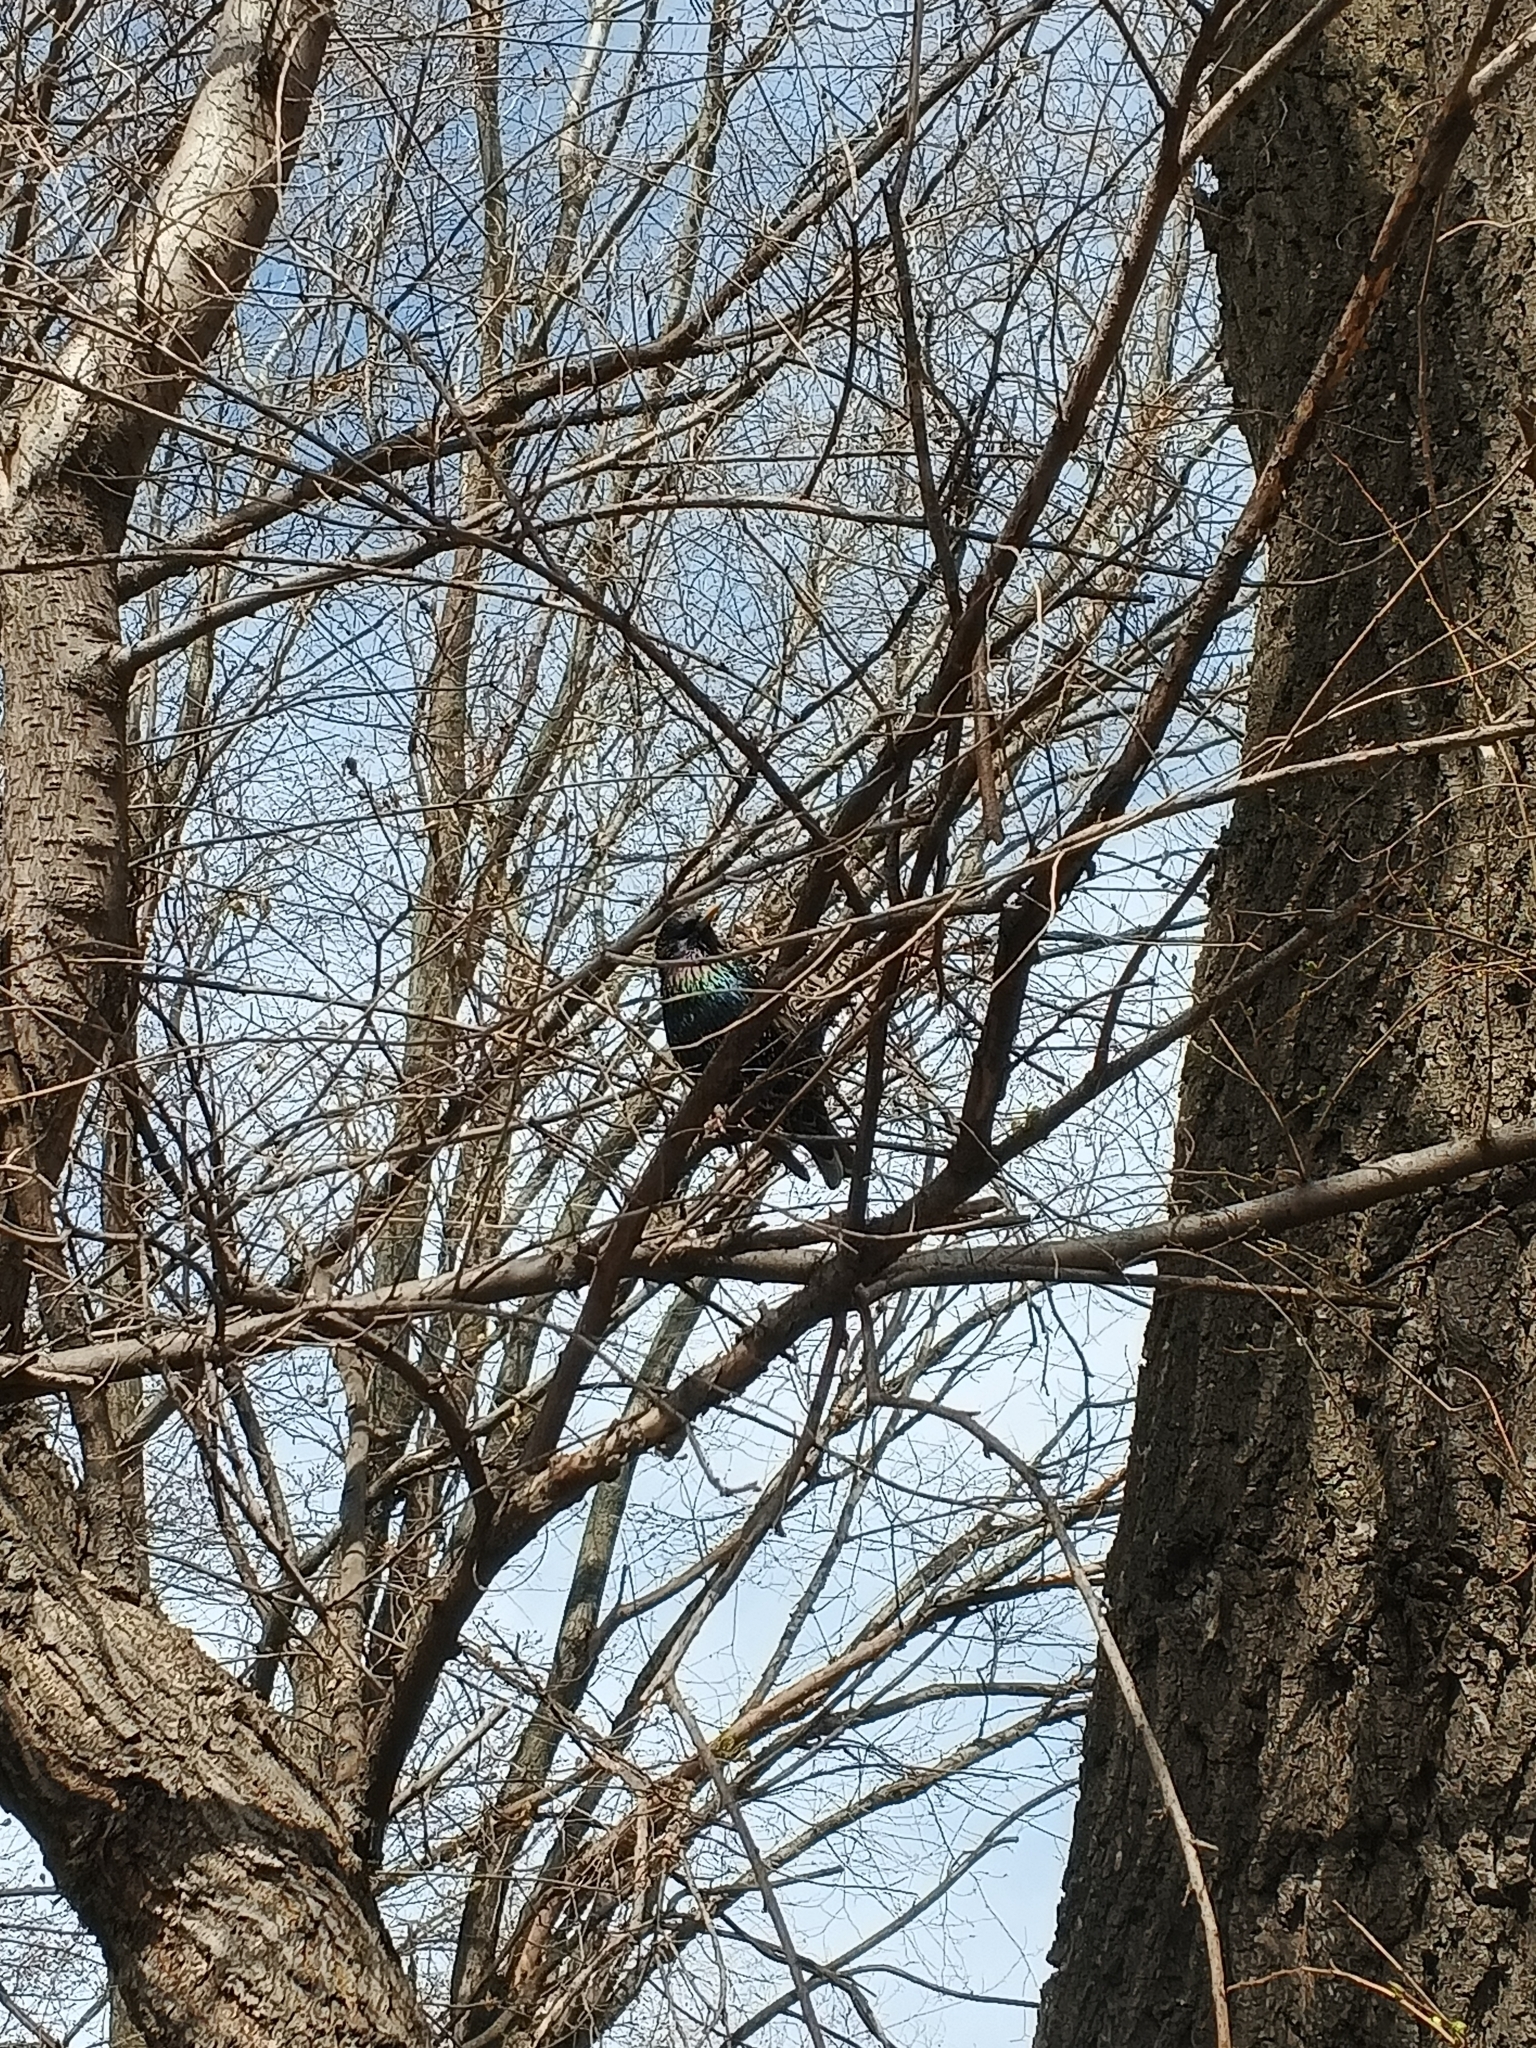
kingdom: Animalia
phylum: Chordata
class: Aves
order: Passeriformes
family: Sturnidae
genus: Sturnus
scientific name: Sturnus vulgaris
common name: Common starling
